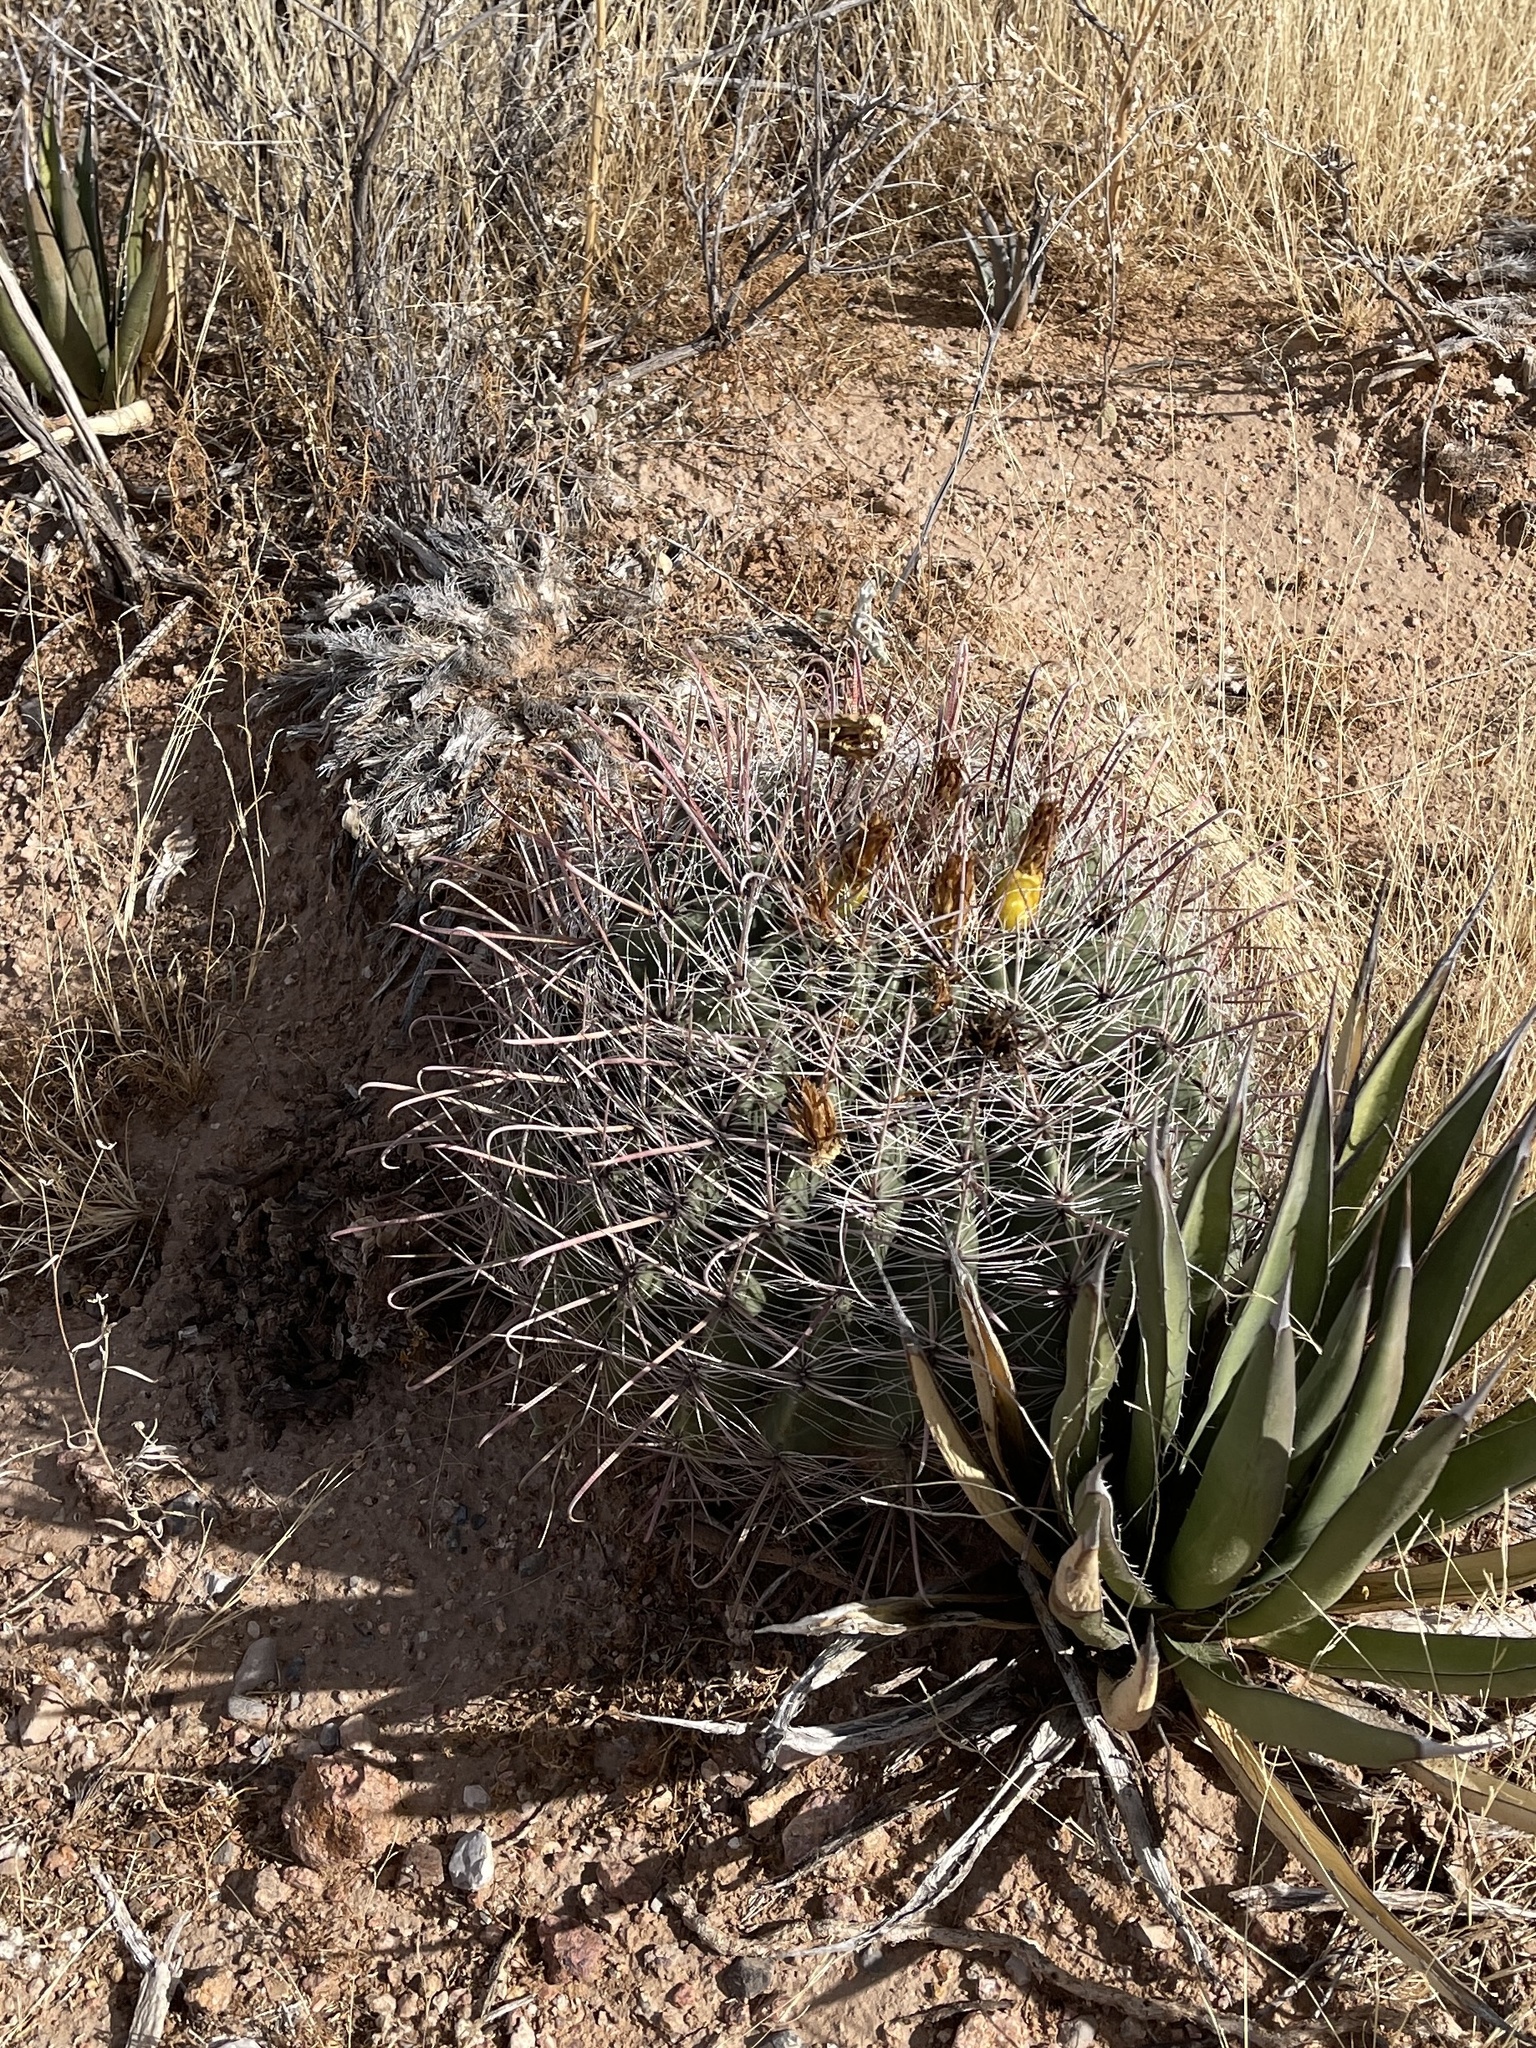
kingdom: Plantae
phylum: Tracheophyta
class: Magnoliopsida
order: Caryophyllales
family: Cactaceae
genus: Ferocactus
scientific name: Ferocactus wislizeni
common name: Candy barrel cactus
